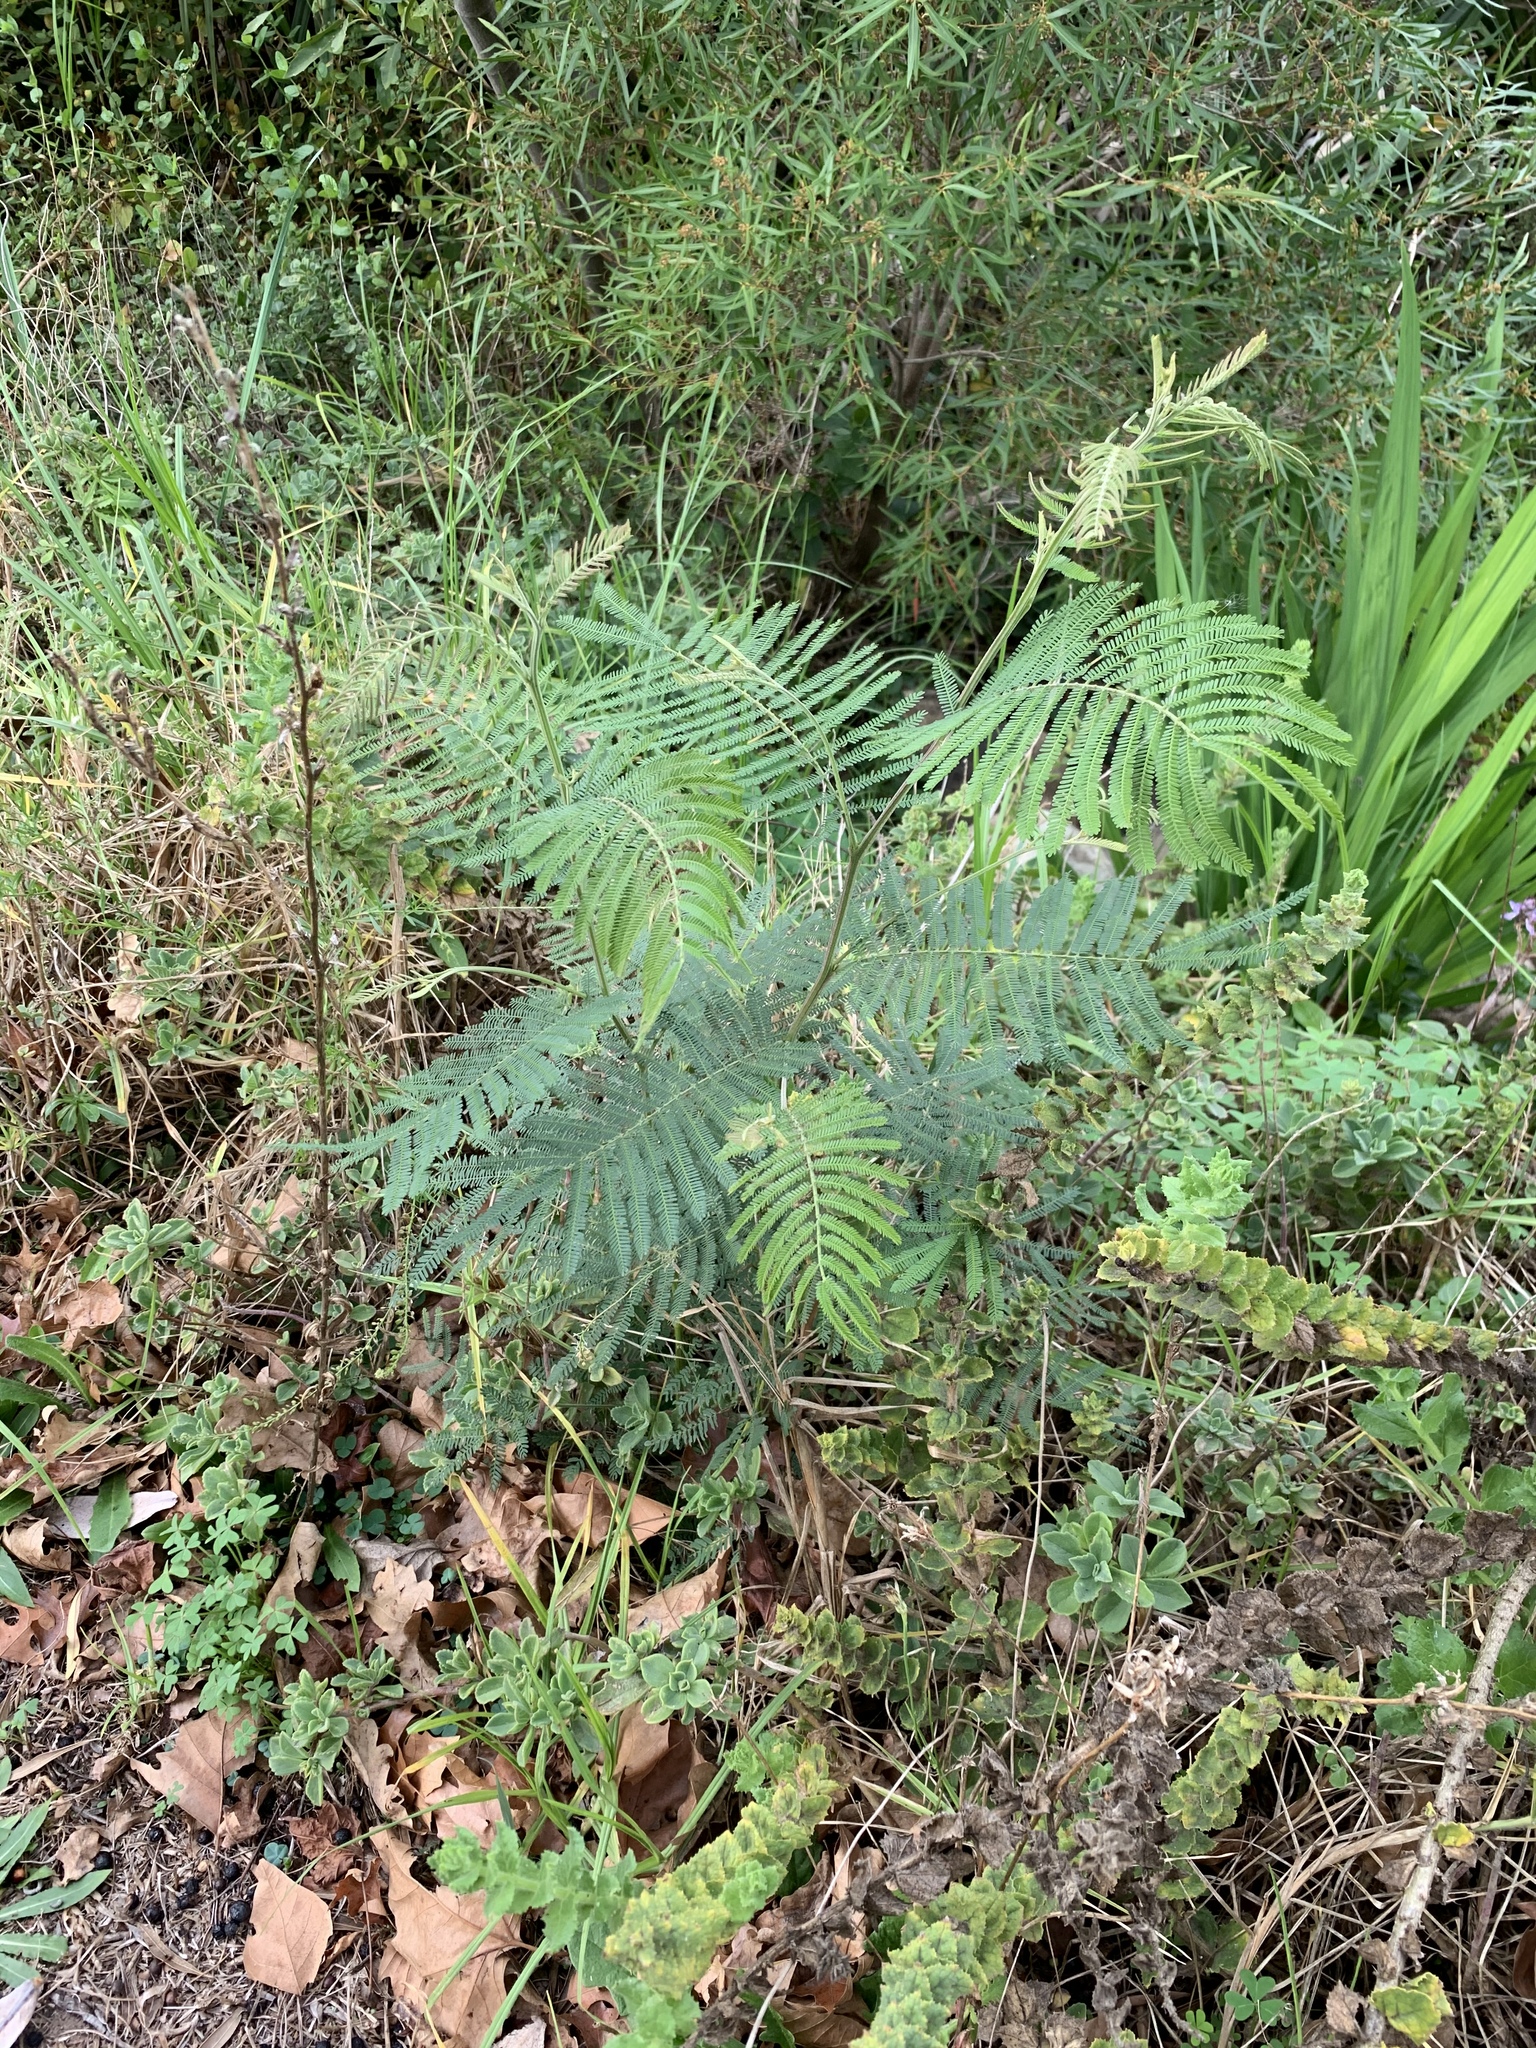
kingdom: Plantae
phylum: Tracheophyta
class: Magnoliopsida
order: Fabales
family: Fabaceae
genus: Acacia
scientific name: Acacia mearnsii
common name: Black wattle
